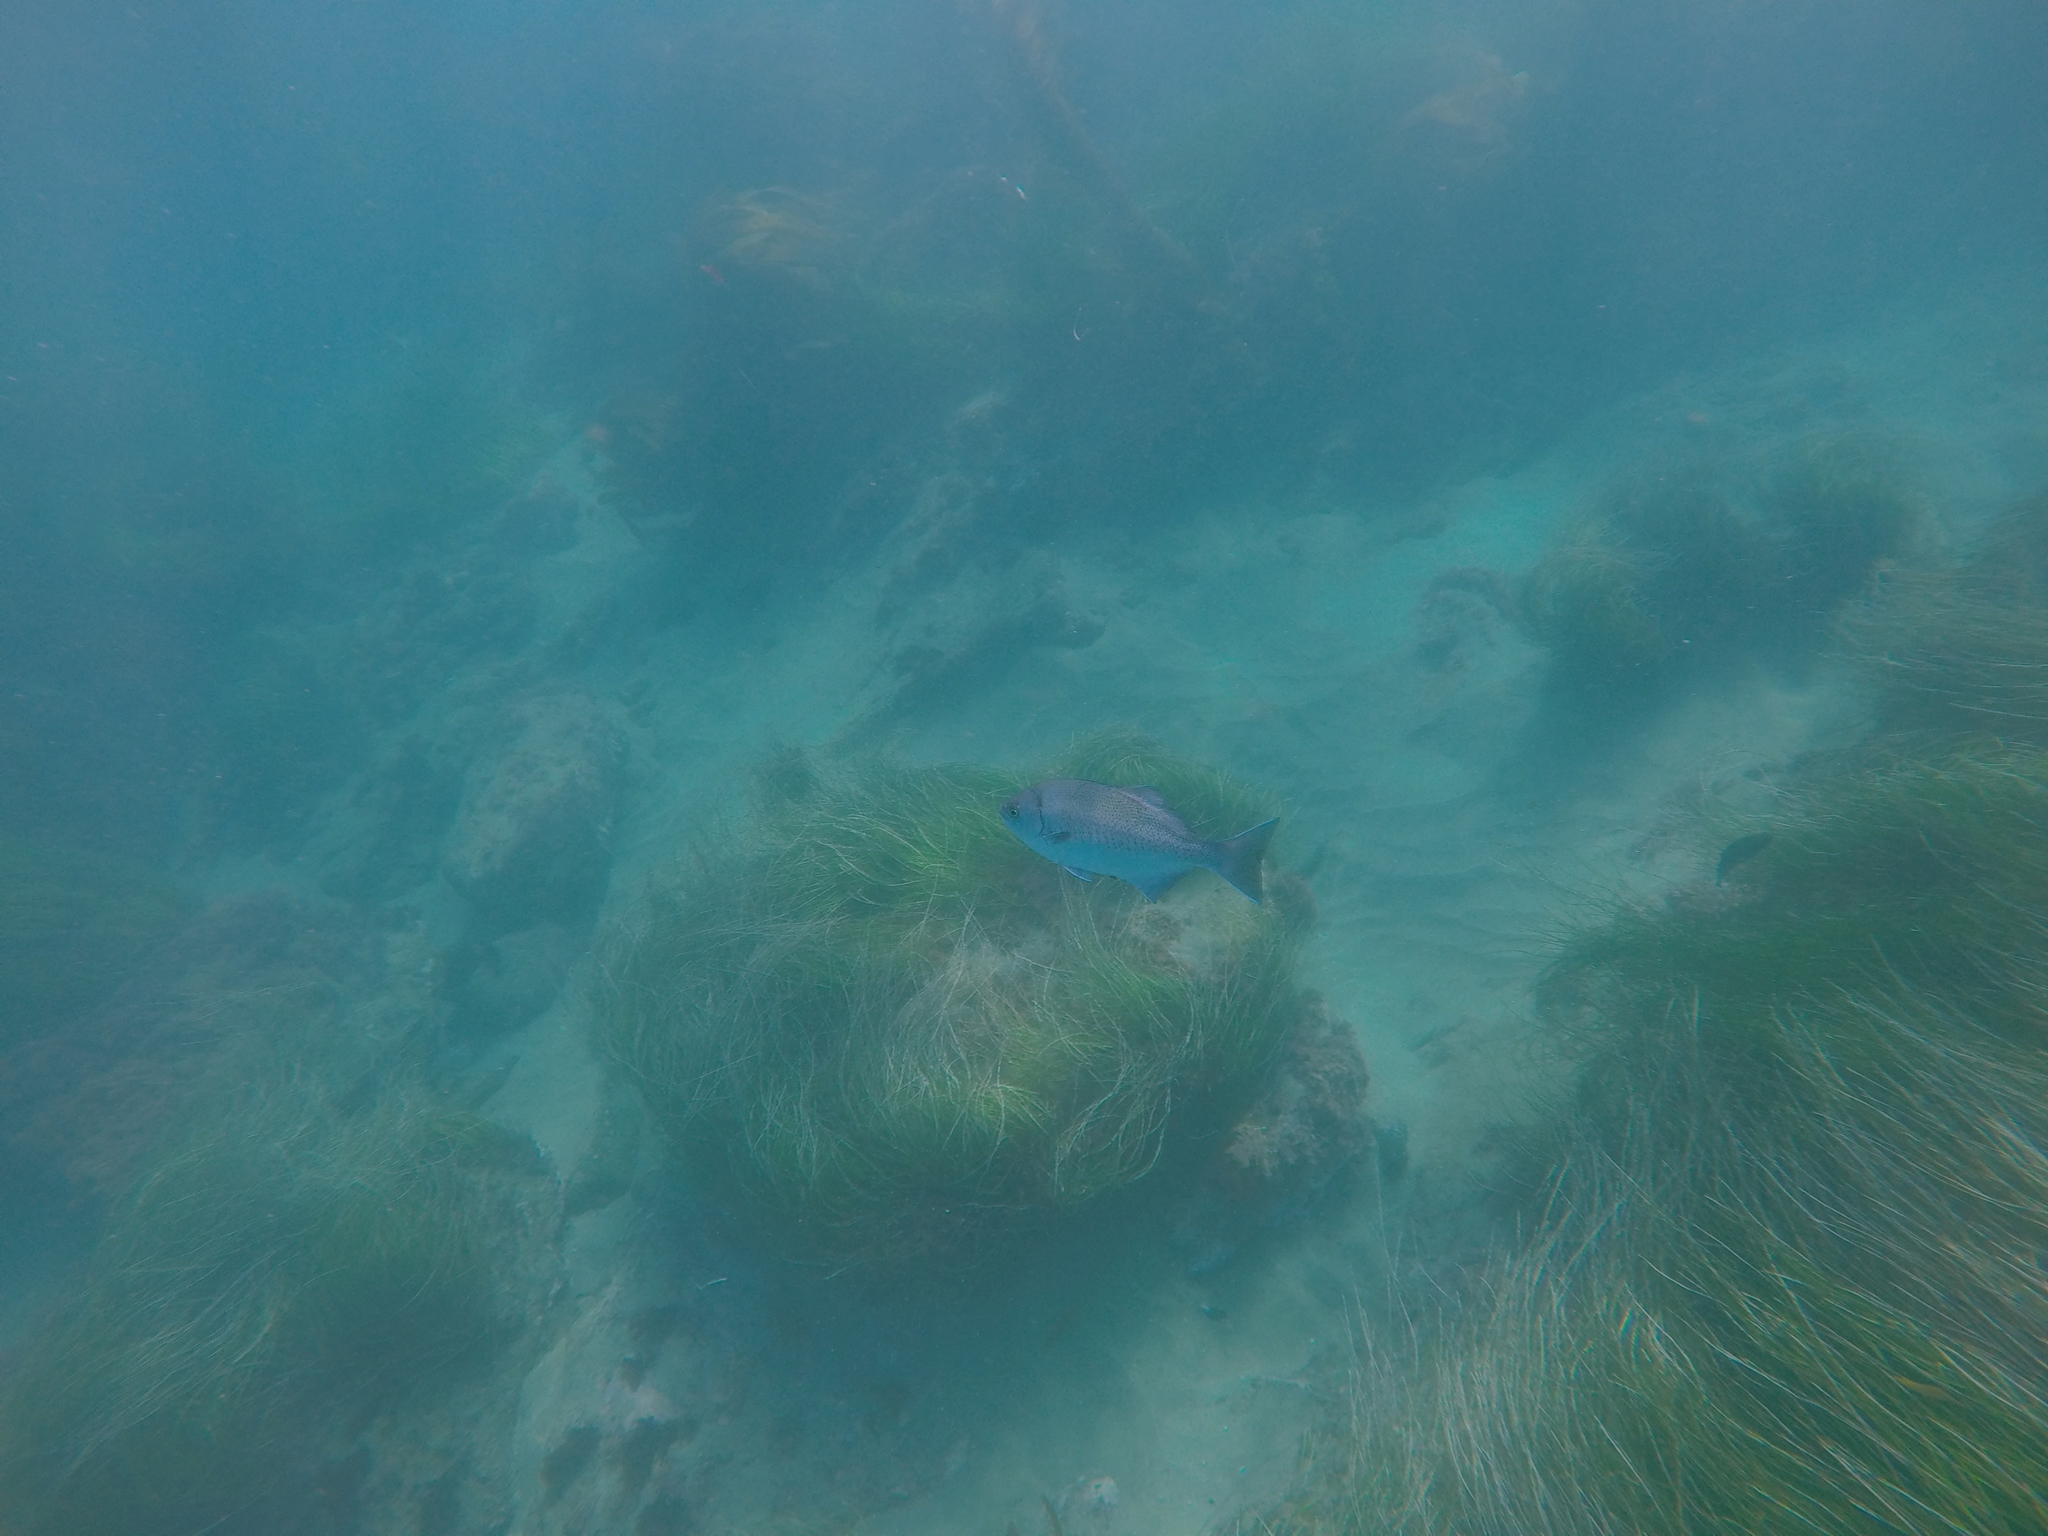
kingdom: Animalia
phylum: Chordata
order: Perciformes
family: Kyphosidae
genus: Medialuna
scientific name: Medialuna californiensis
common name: Halfmoon
